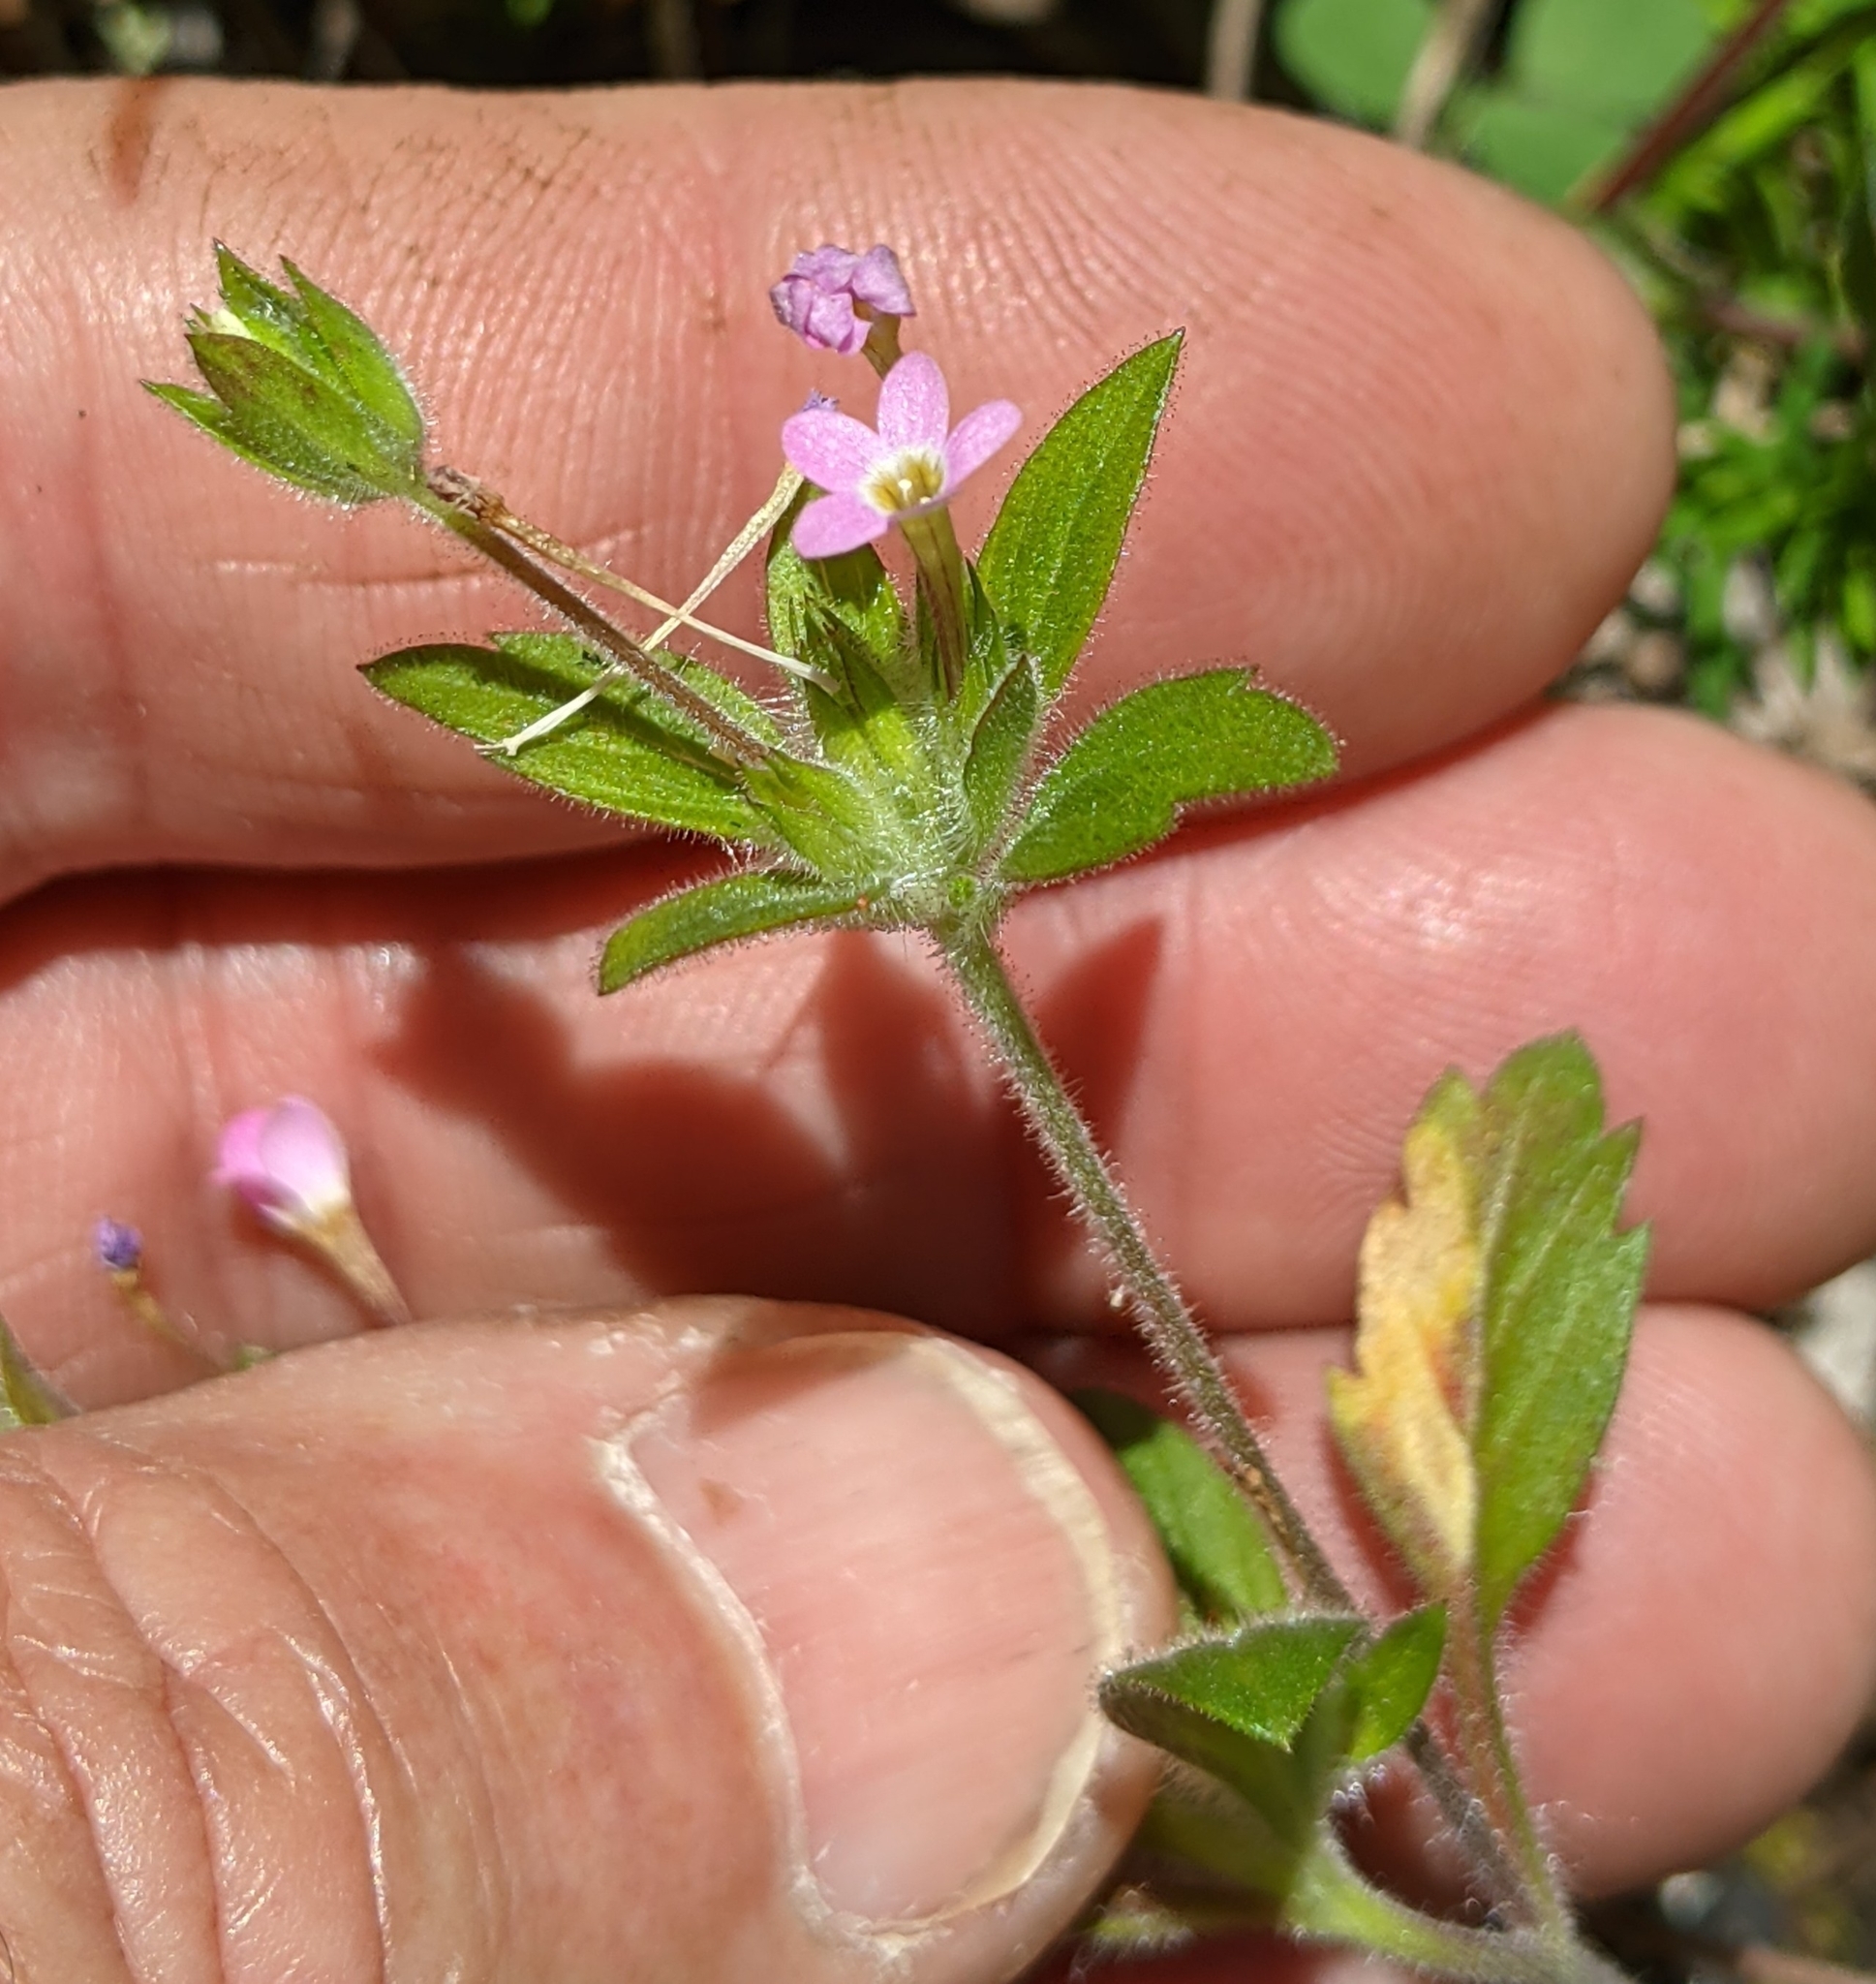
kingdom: Plantae
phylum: Tracheophyta
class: Magnoliopsida
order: Ericales
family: Polemoniaceae
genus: Collomia
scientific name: Collomia heterophylla
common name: Variable-leaved collomia
